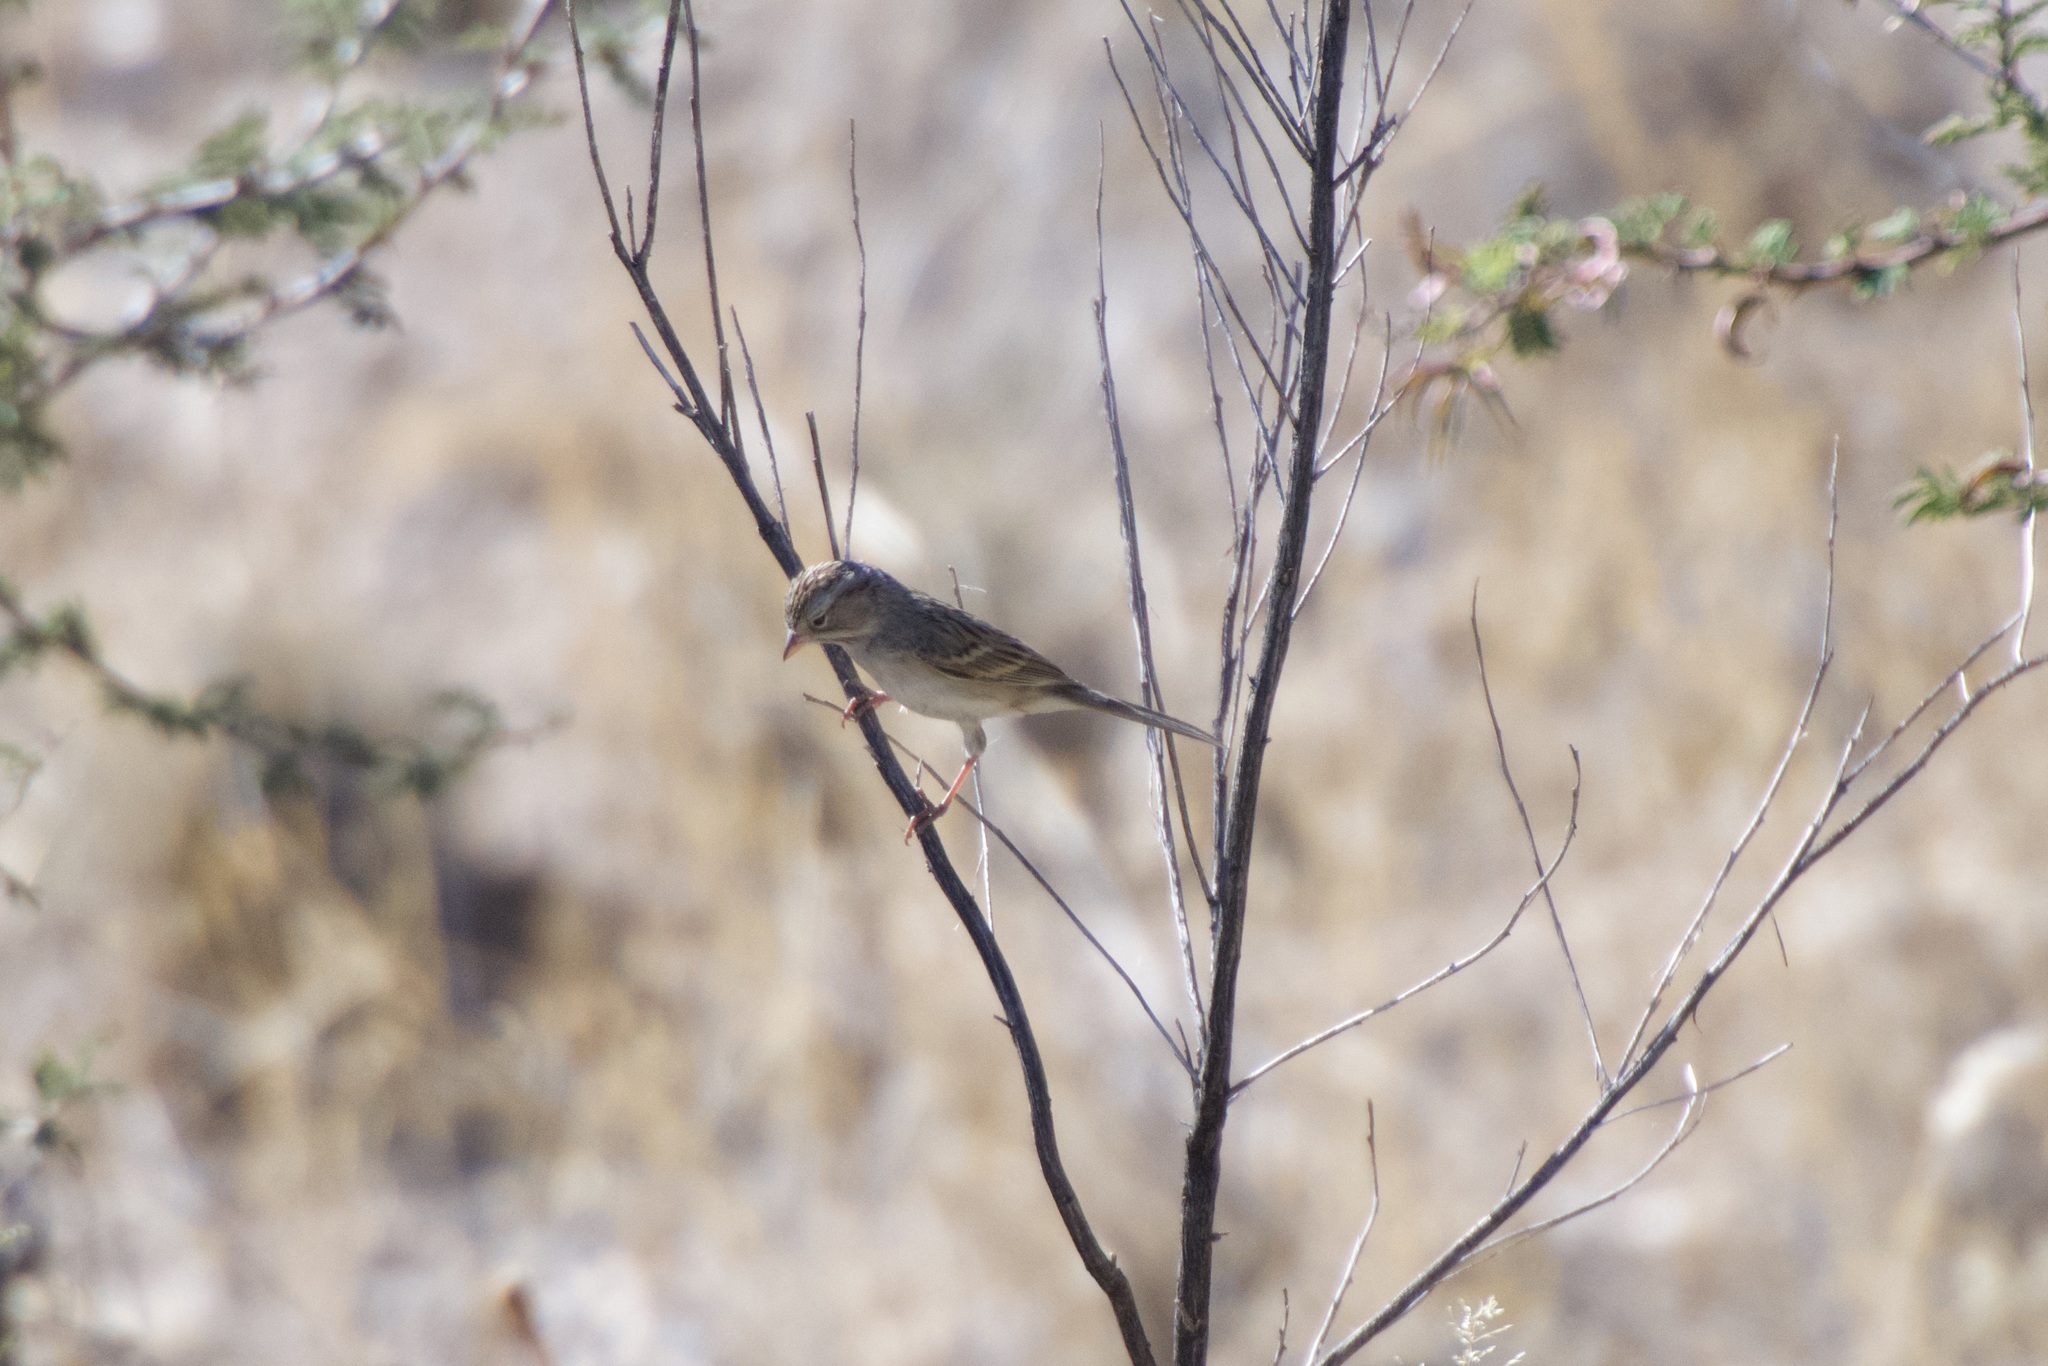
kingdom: Animalia
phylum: Chordata
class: Aves
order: Passeriformes
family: Passerellidae
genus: Spizella
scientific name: Spizella breweri
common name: Brewer's sparrow
